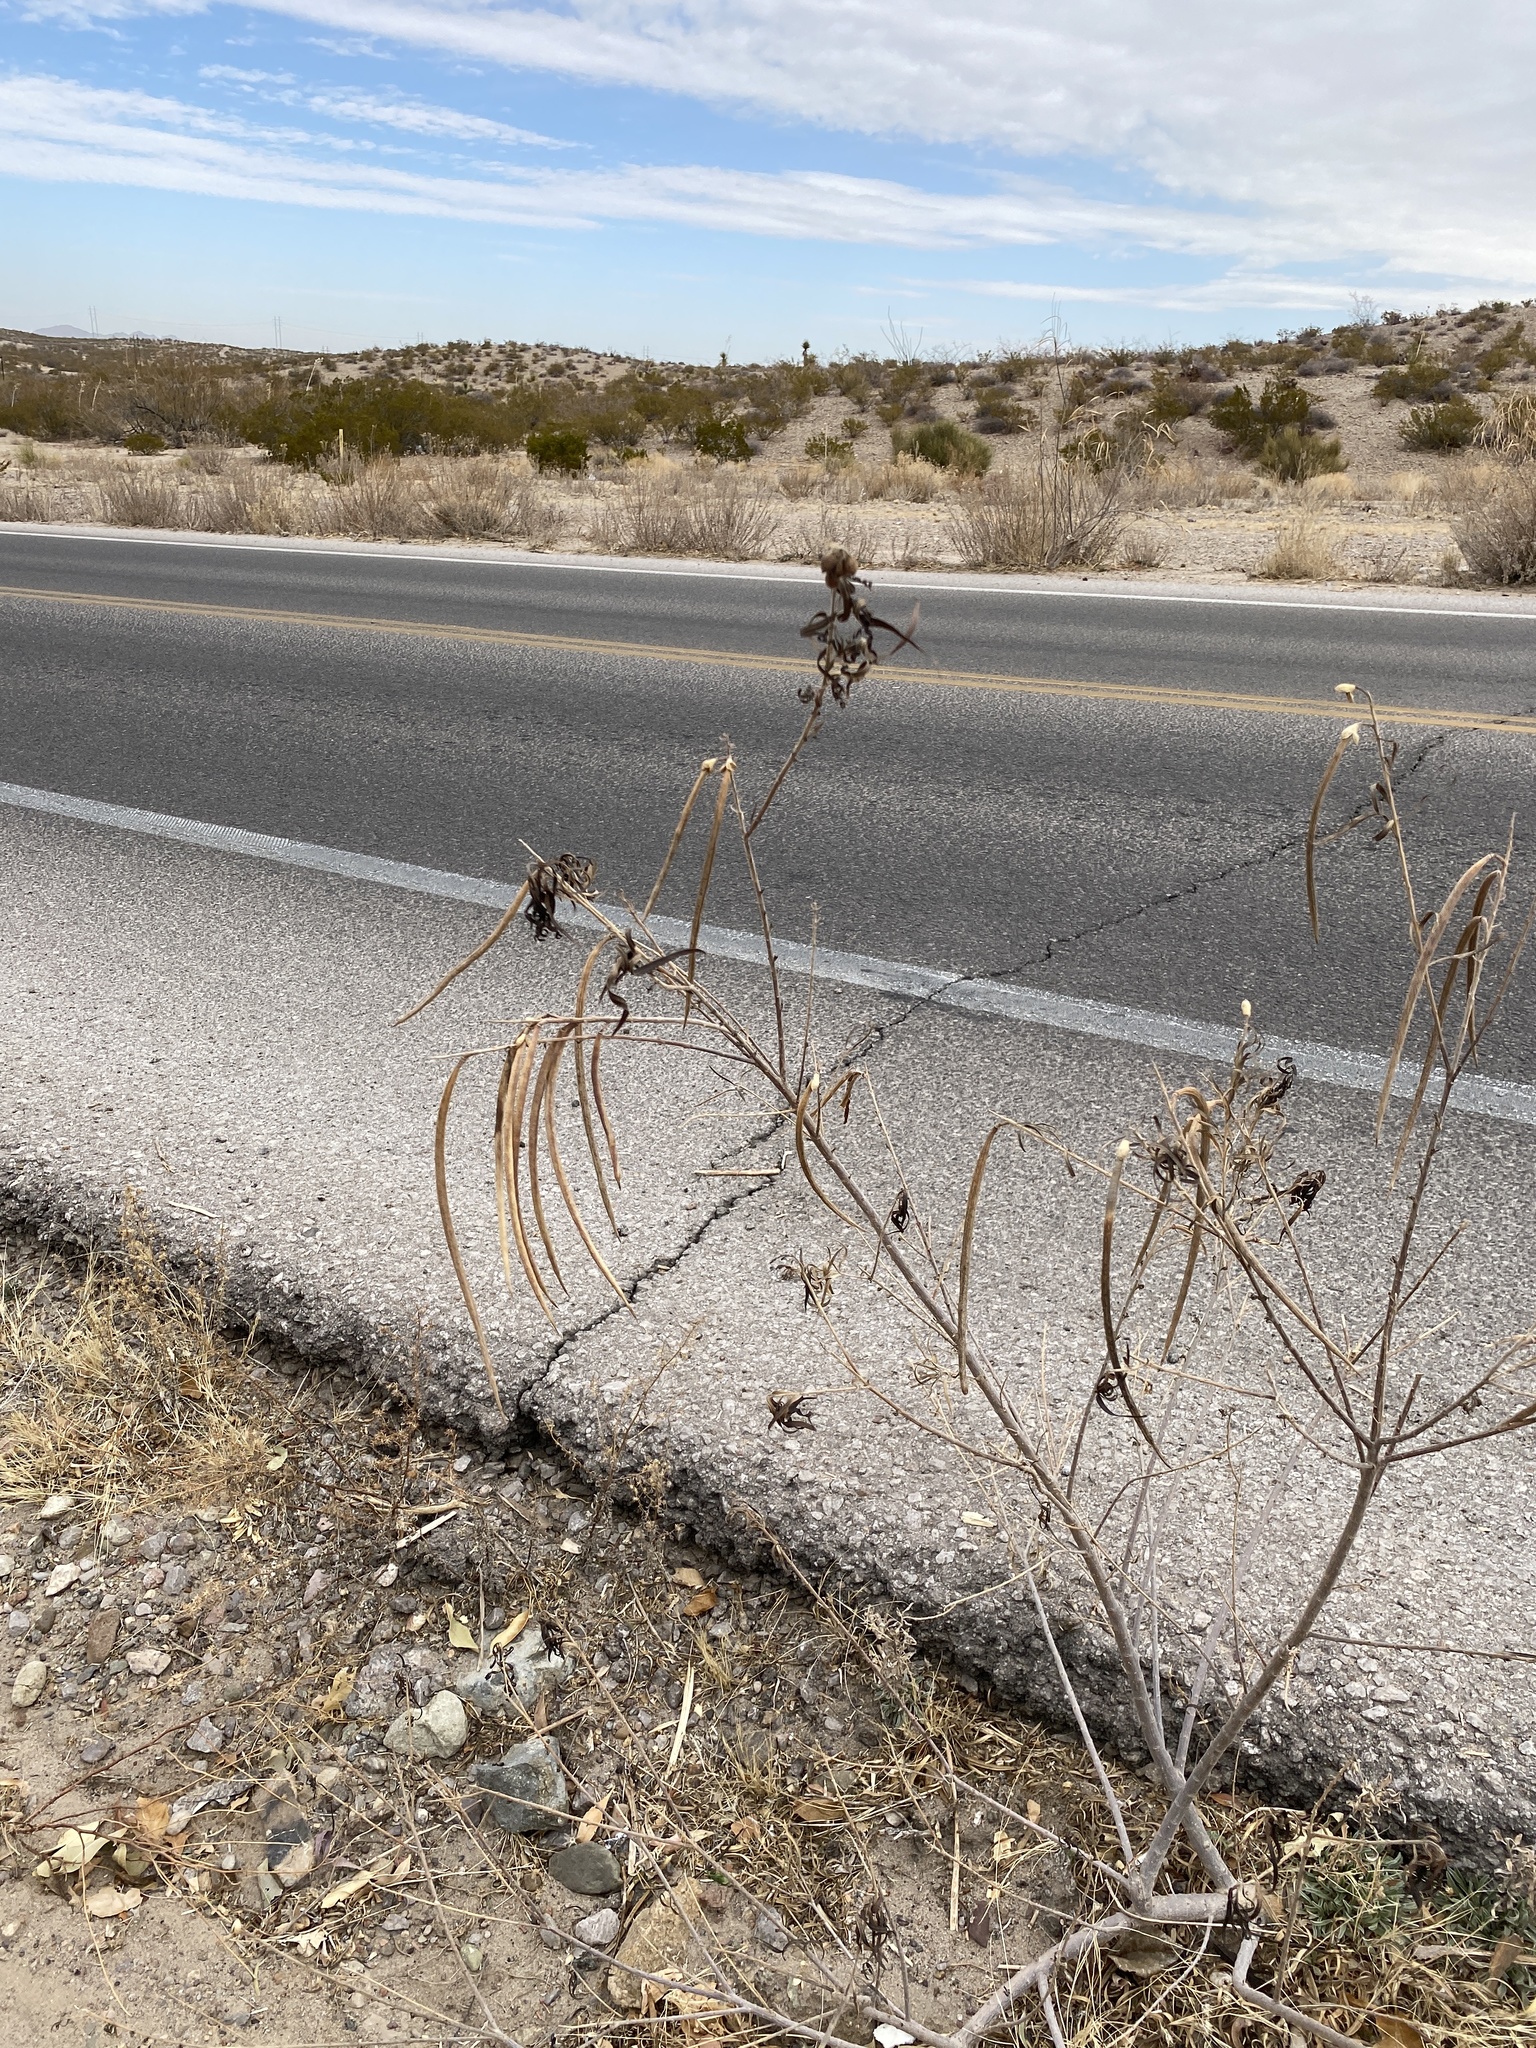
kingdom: Plantae
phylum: Tracheophyta
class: Magnoliopsida
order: Lamiales
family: Bignoniaceae
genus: Chilopsis
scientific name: Chilopsis linearis
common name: Desert-willow
